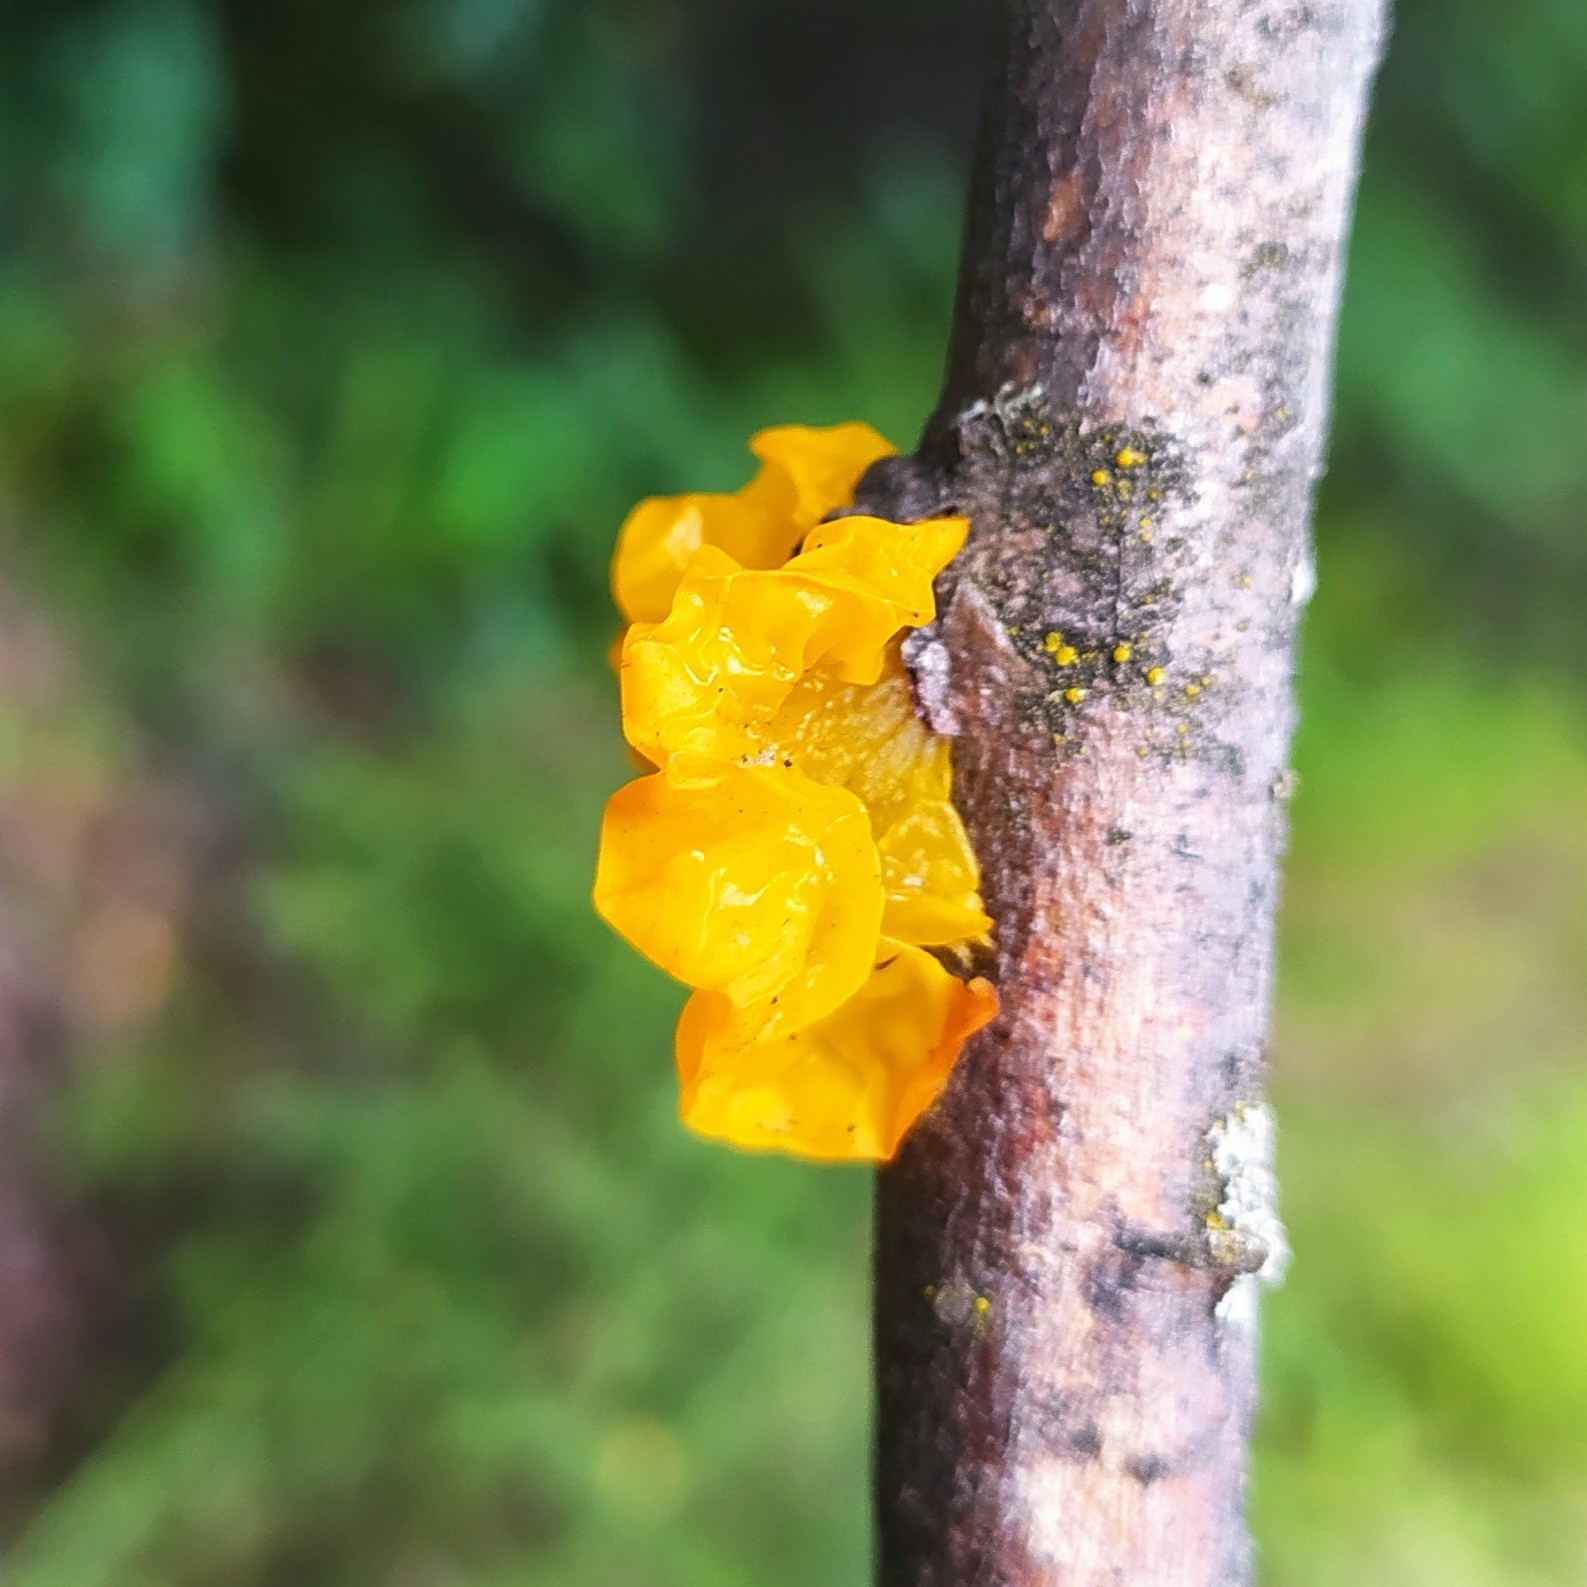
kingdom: Fungi
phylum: Basidiomycota
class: Tremellomycetes
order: Tremellales
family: Tremellaceae
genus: Tremella
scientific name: Tremella mesenterica
